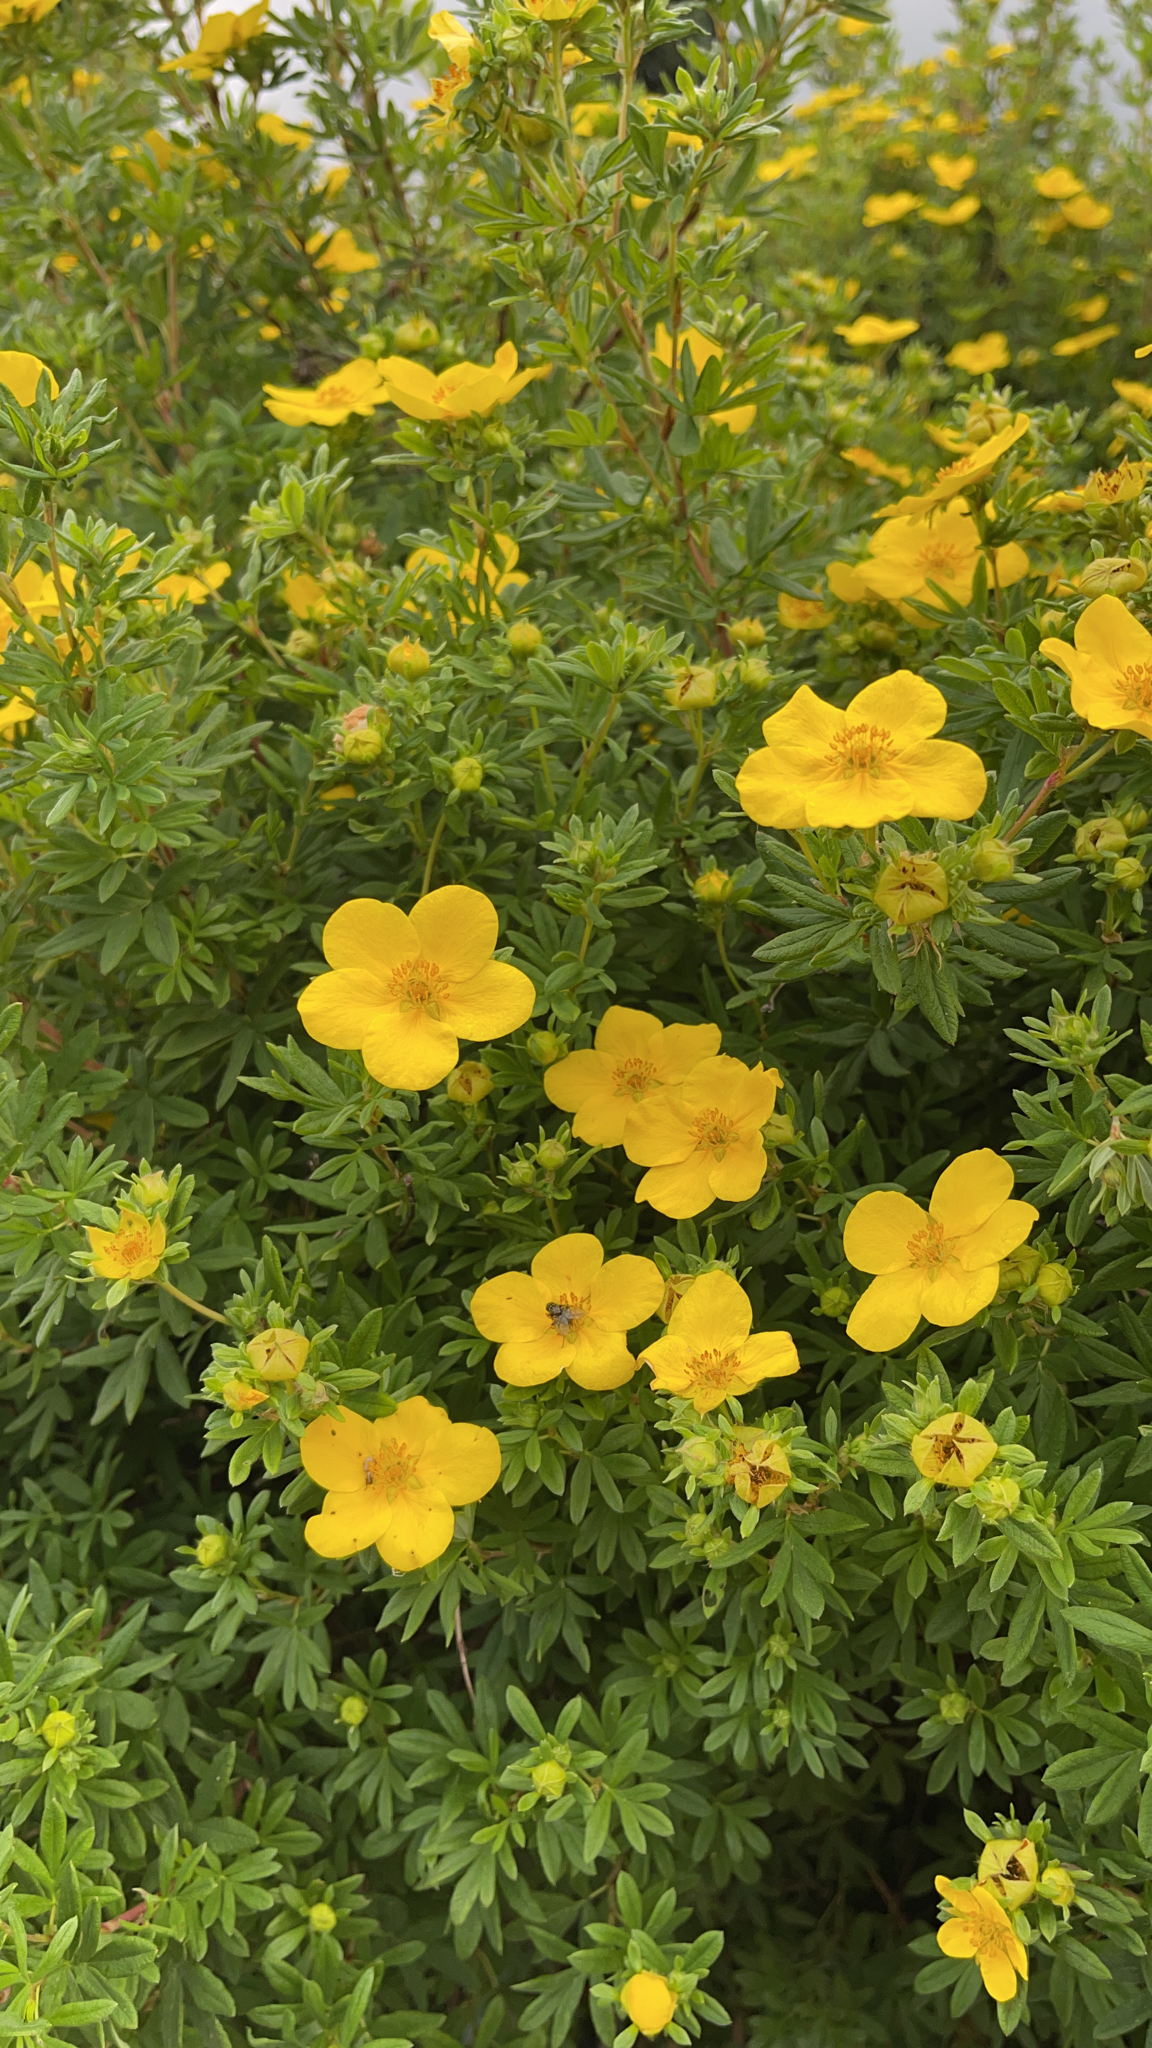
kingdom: Plantae
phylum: Tracheophyta
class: Magnoliopsida
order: Rosales
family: Rosaceae
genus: Dasiphora
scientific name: Dasiphora fruticosa
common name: Shrubby cinquefoil
